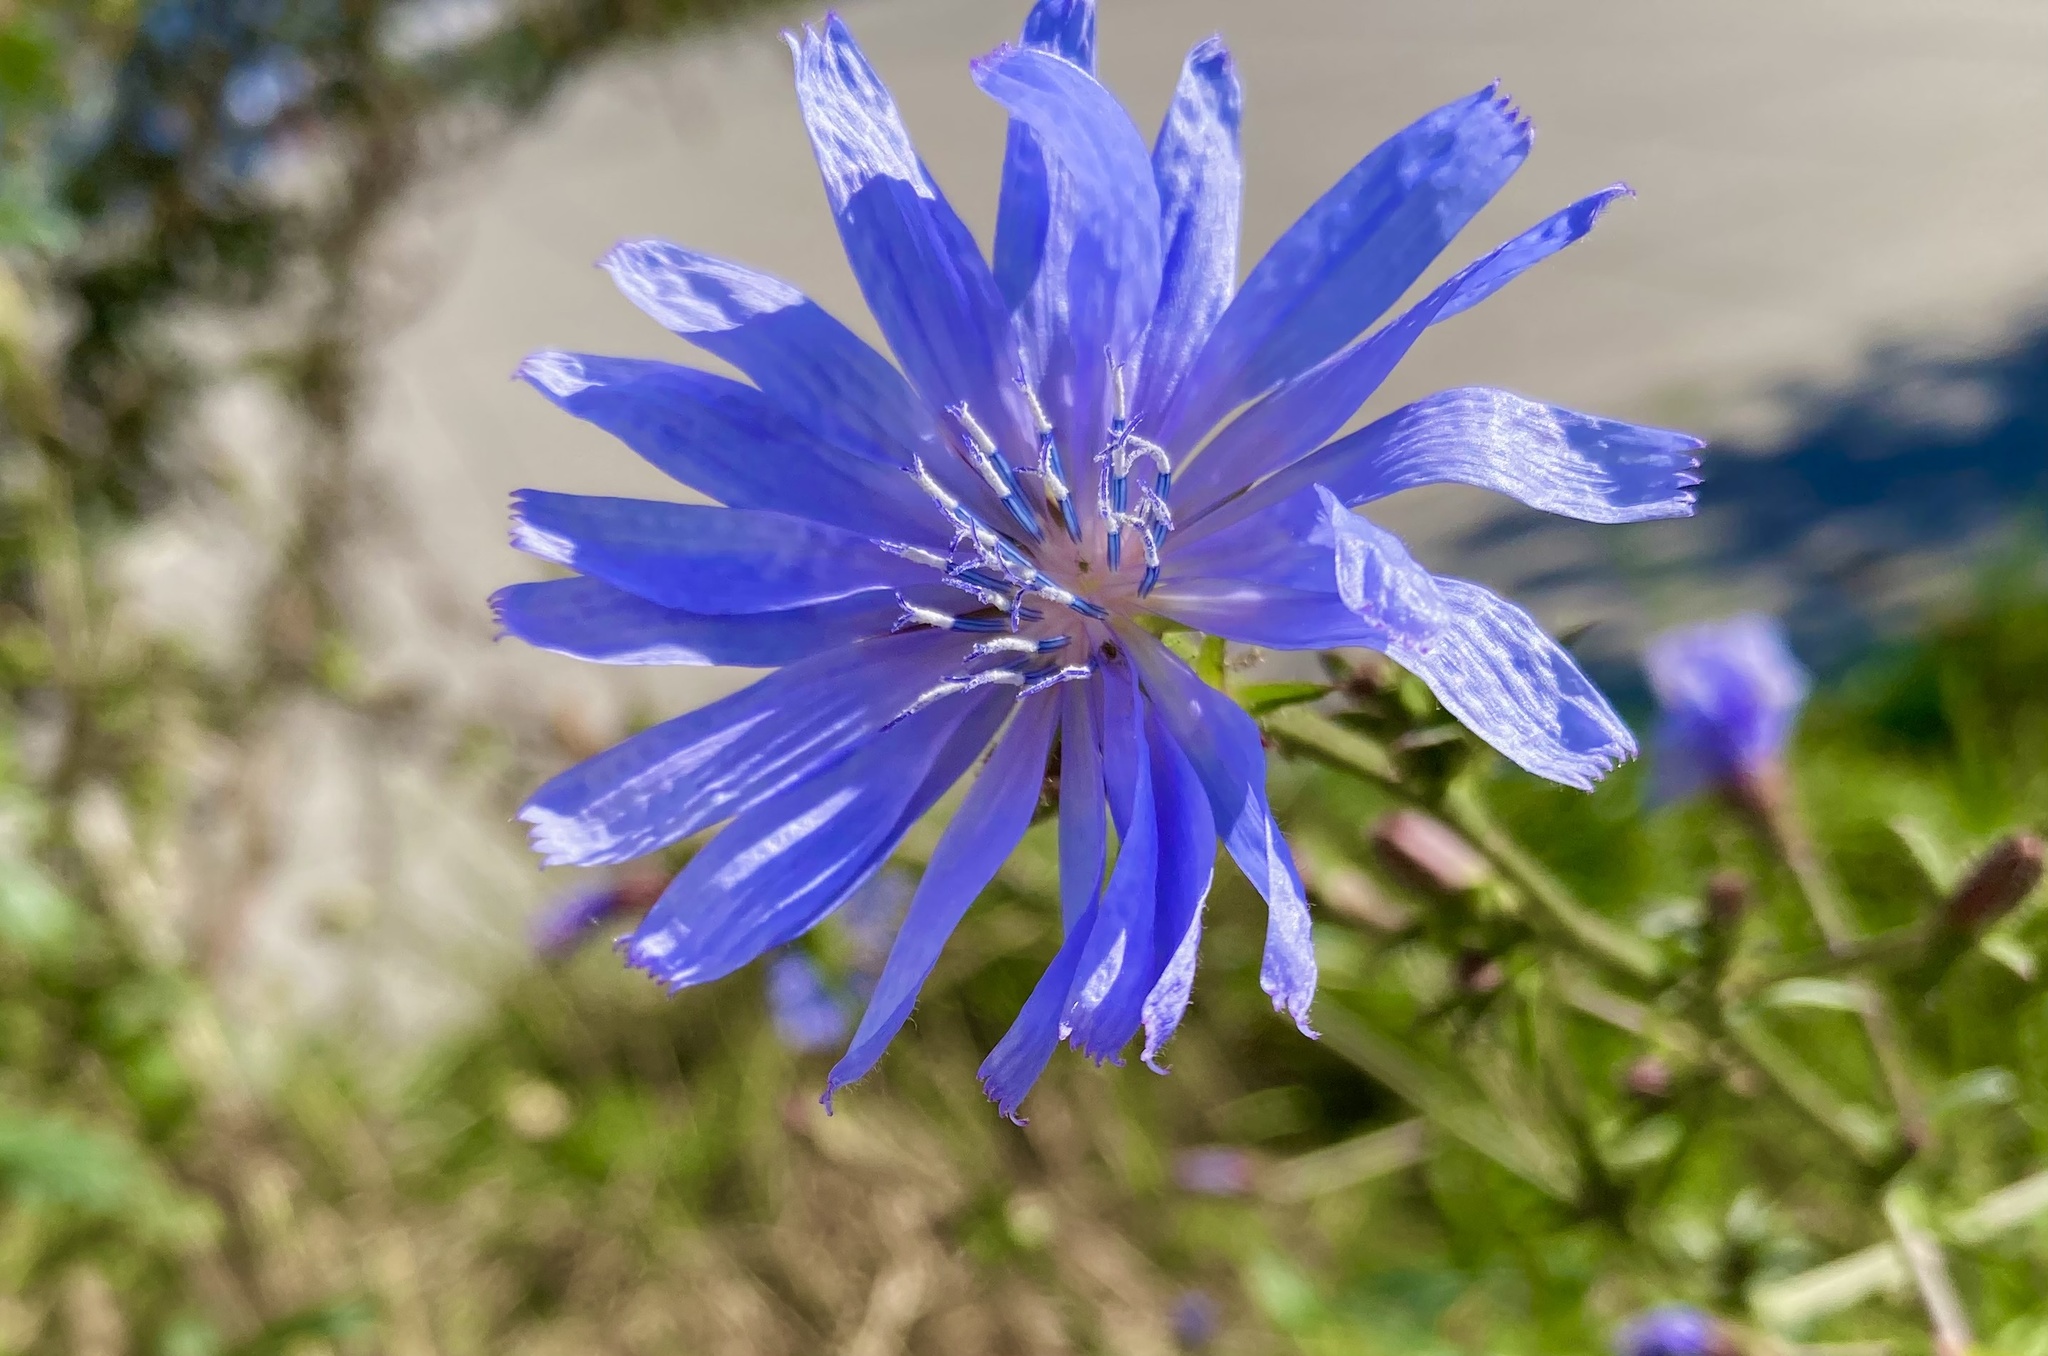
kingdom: Plantae
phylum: Tracheophyta
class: Magnoliopsida
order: Asterales
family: Asteraceae
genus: Cichorium
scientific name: Cichorium intybus
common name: Chicory
